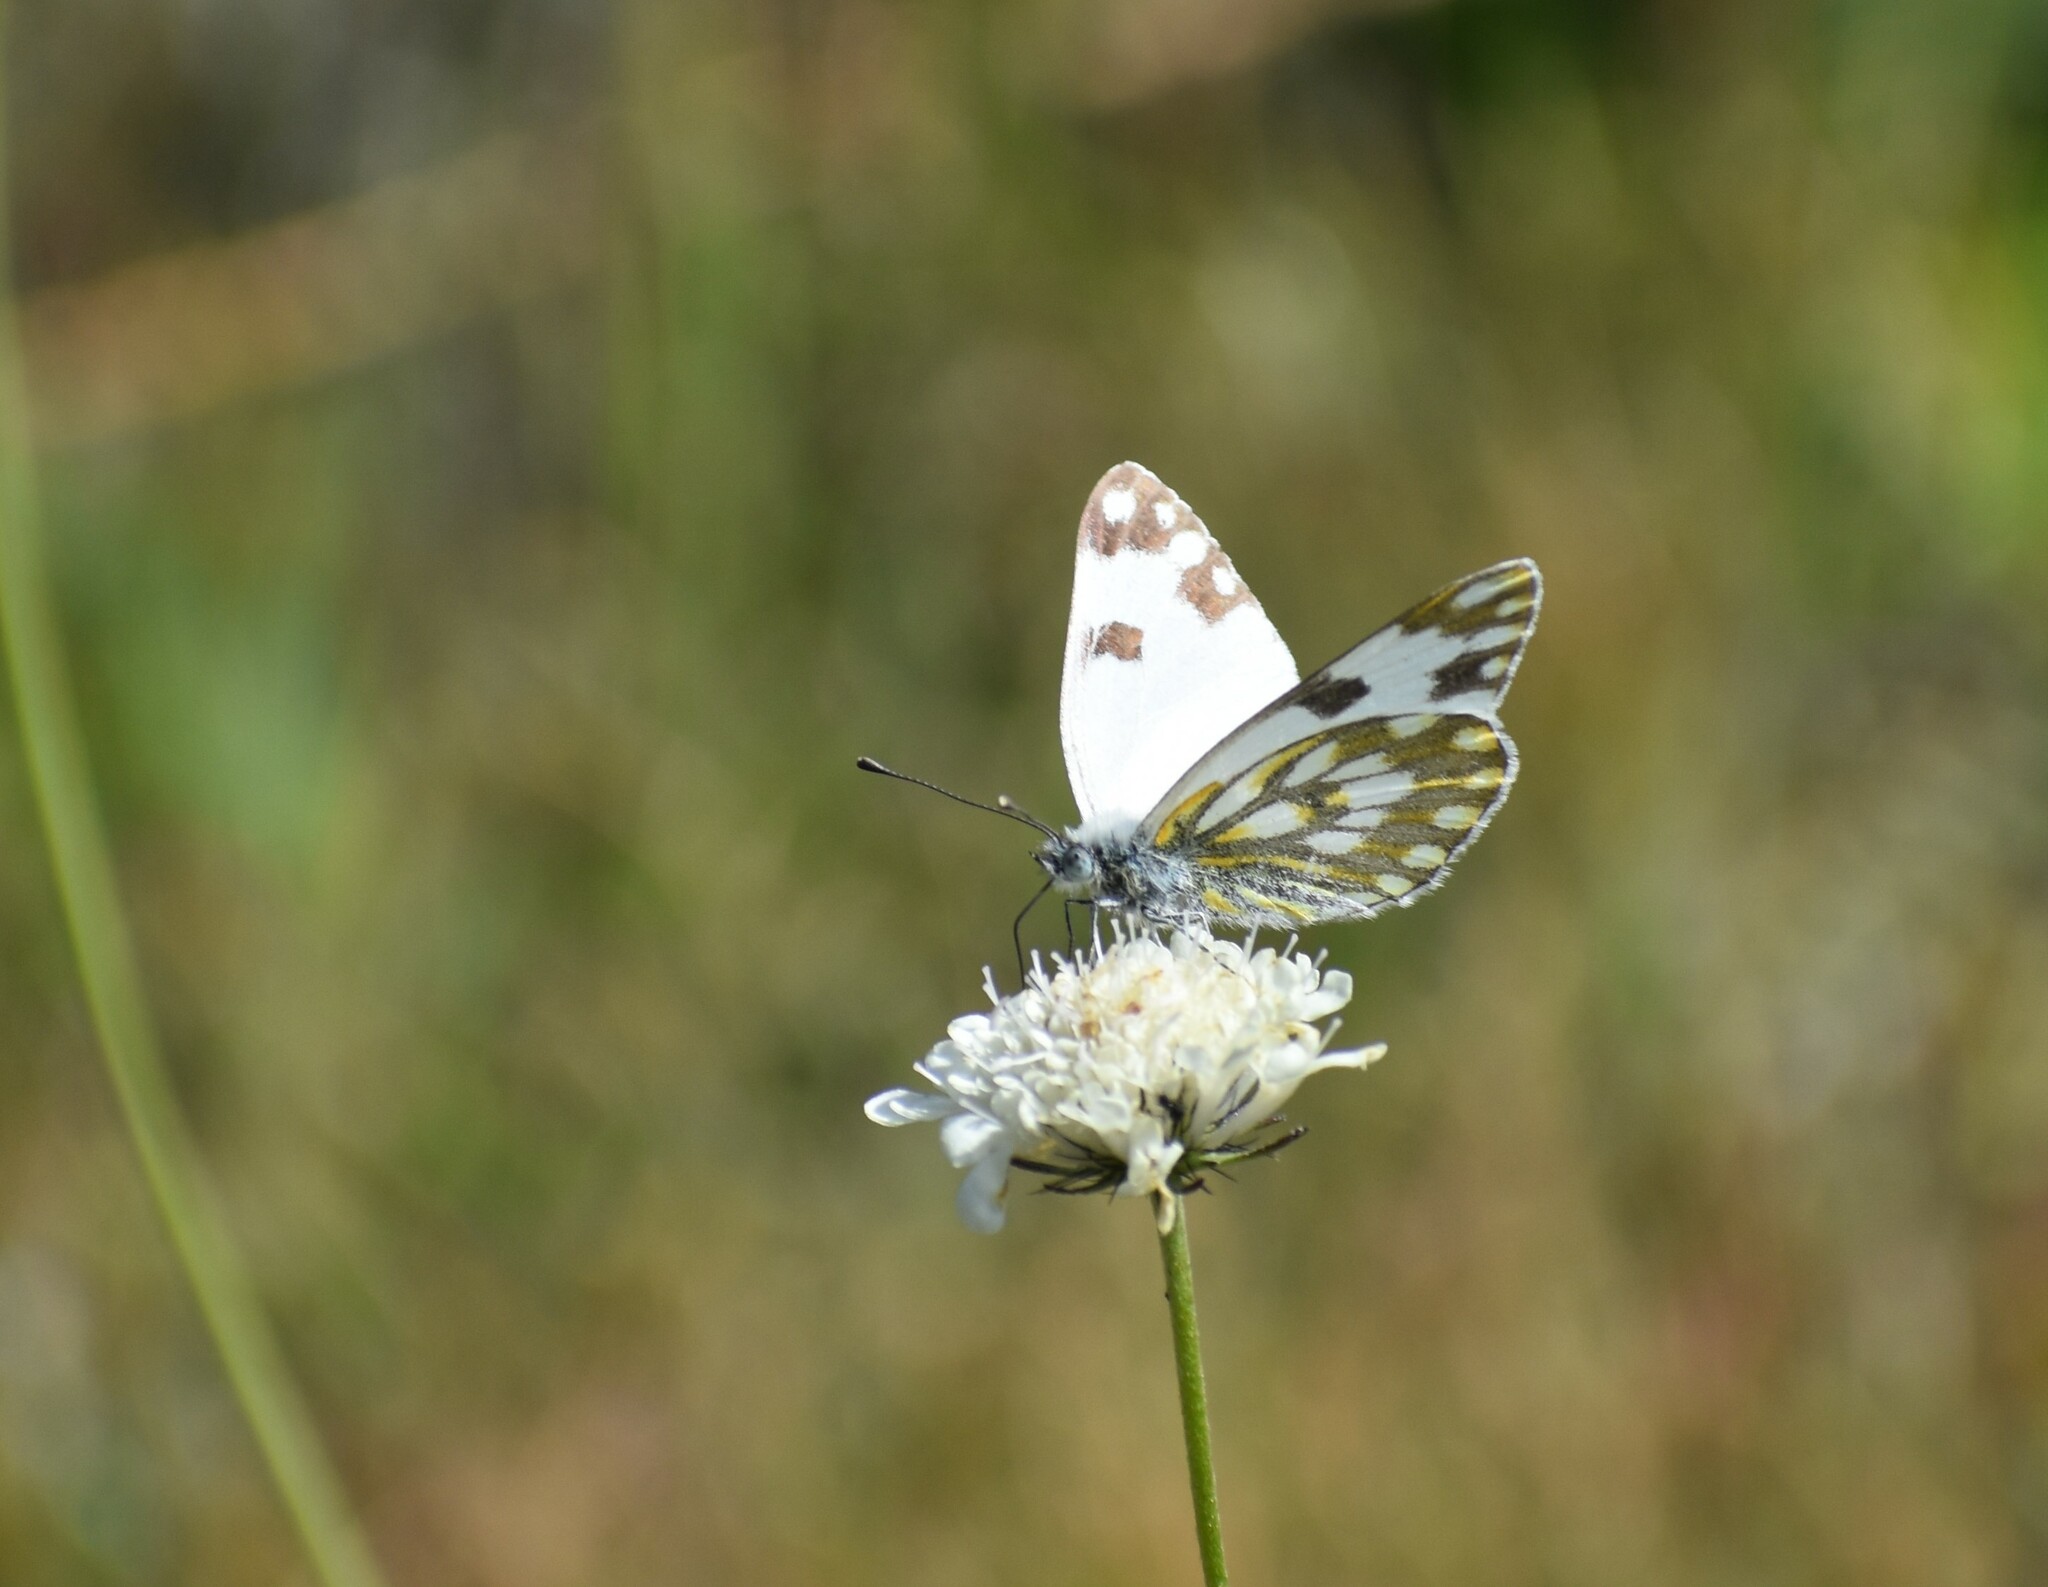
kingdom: Animalia
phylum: Arthropoda
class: Insecta
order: Lepidoptera
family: Pieridae
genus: Pontia
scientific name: Pontia helice
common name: Meadow white
